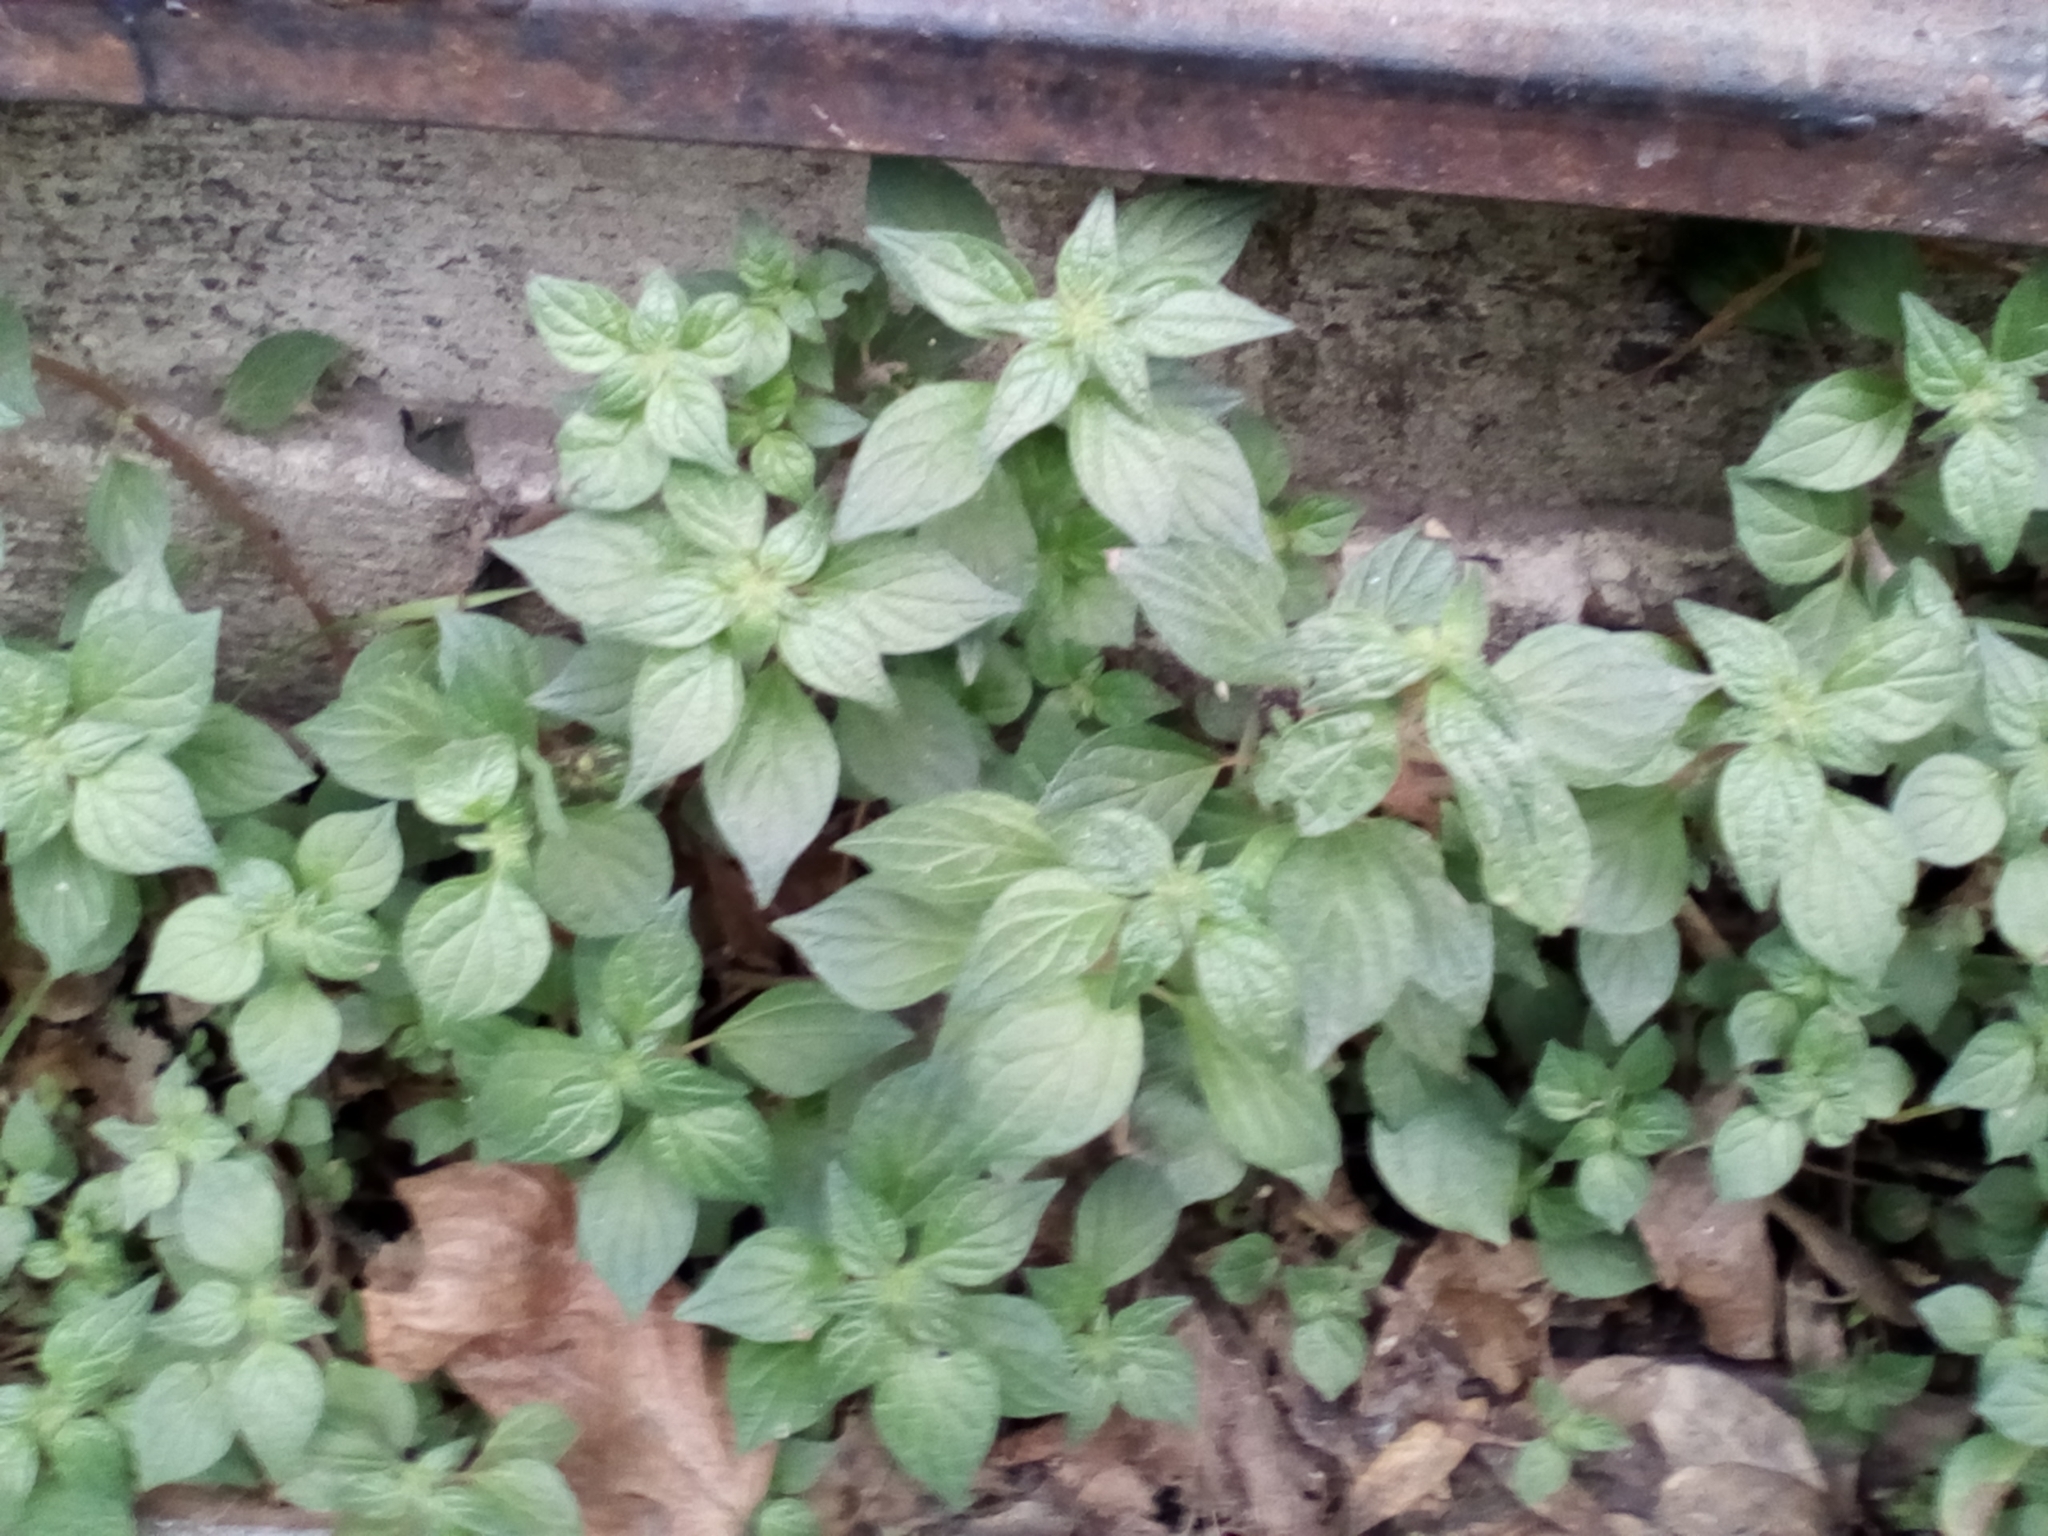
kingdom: Plantae
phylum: Tracheophyta
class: Magnoliopsida
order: Rosales
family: Urticaceae
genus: Parietaria
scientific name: Parietaria judaica
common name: Pellitory-of-the-wall
